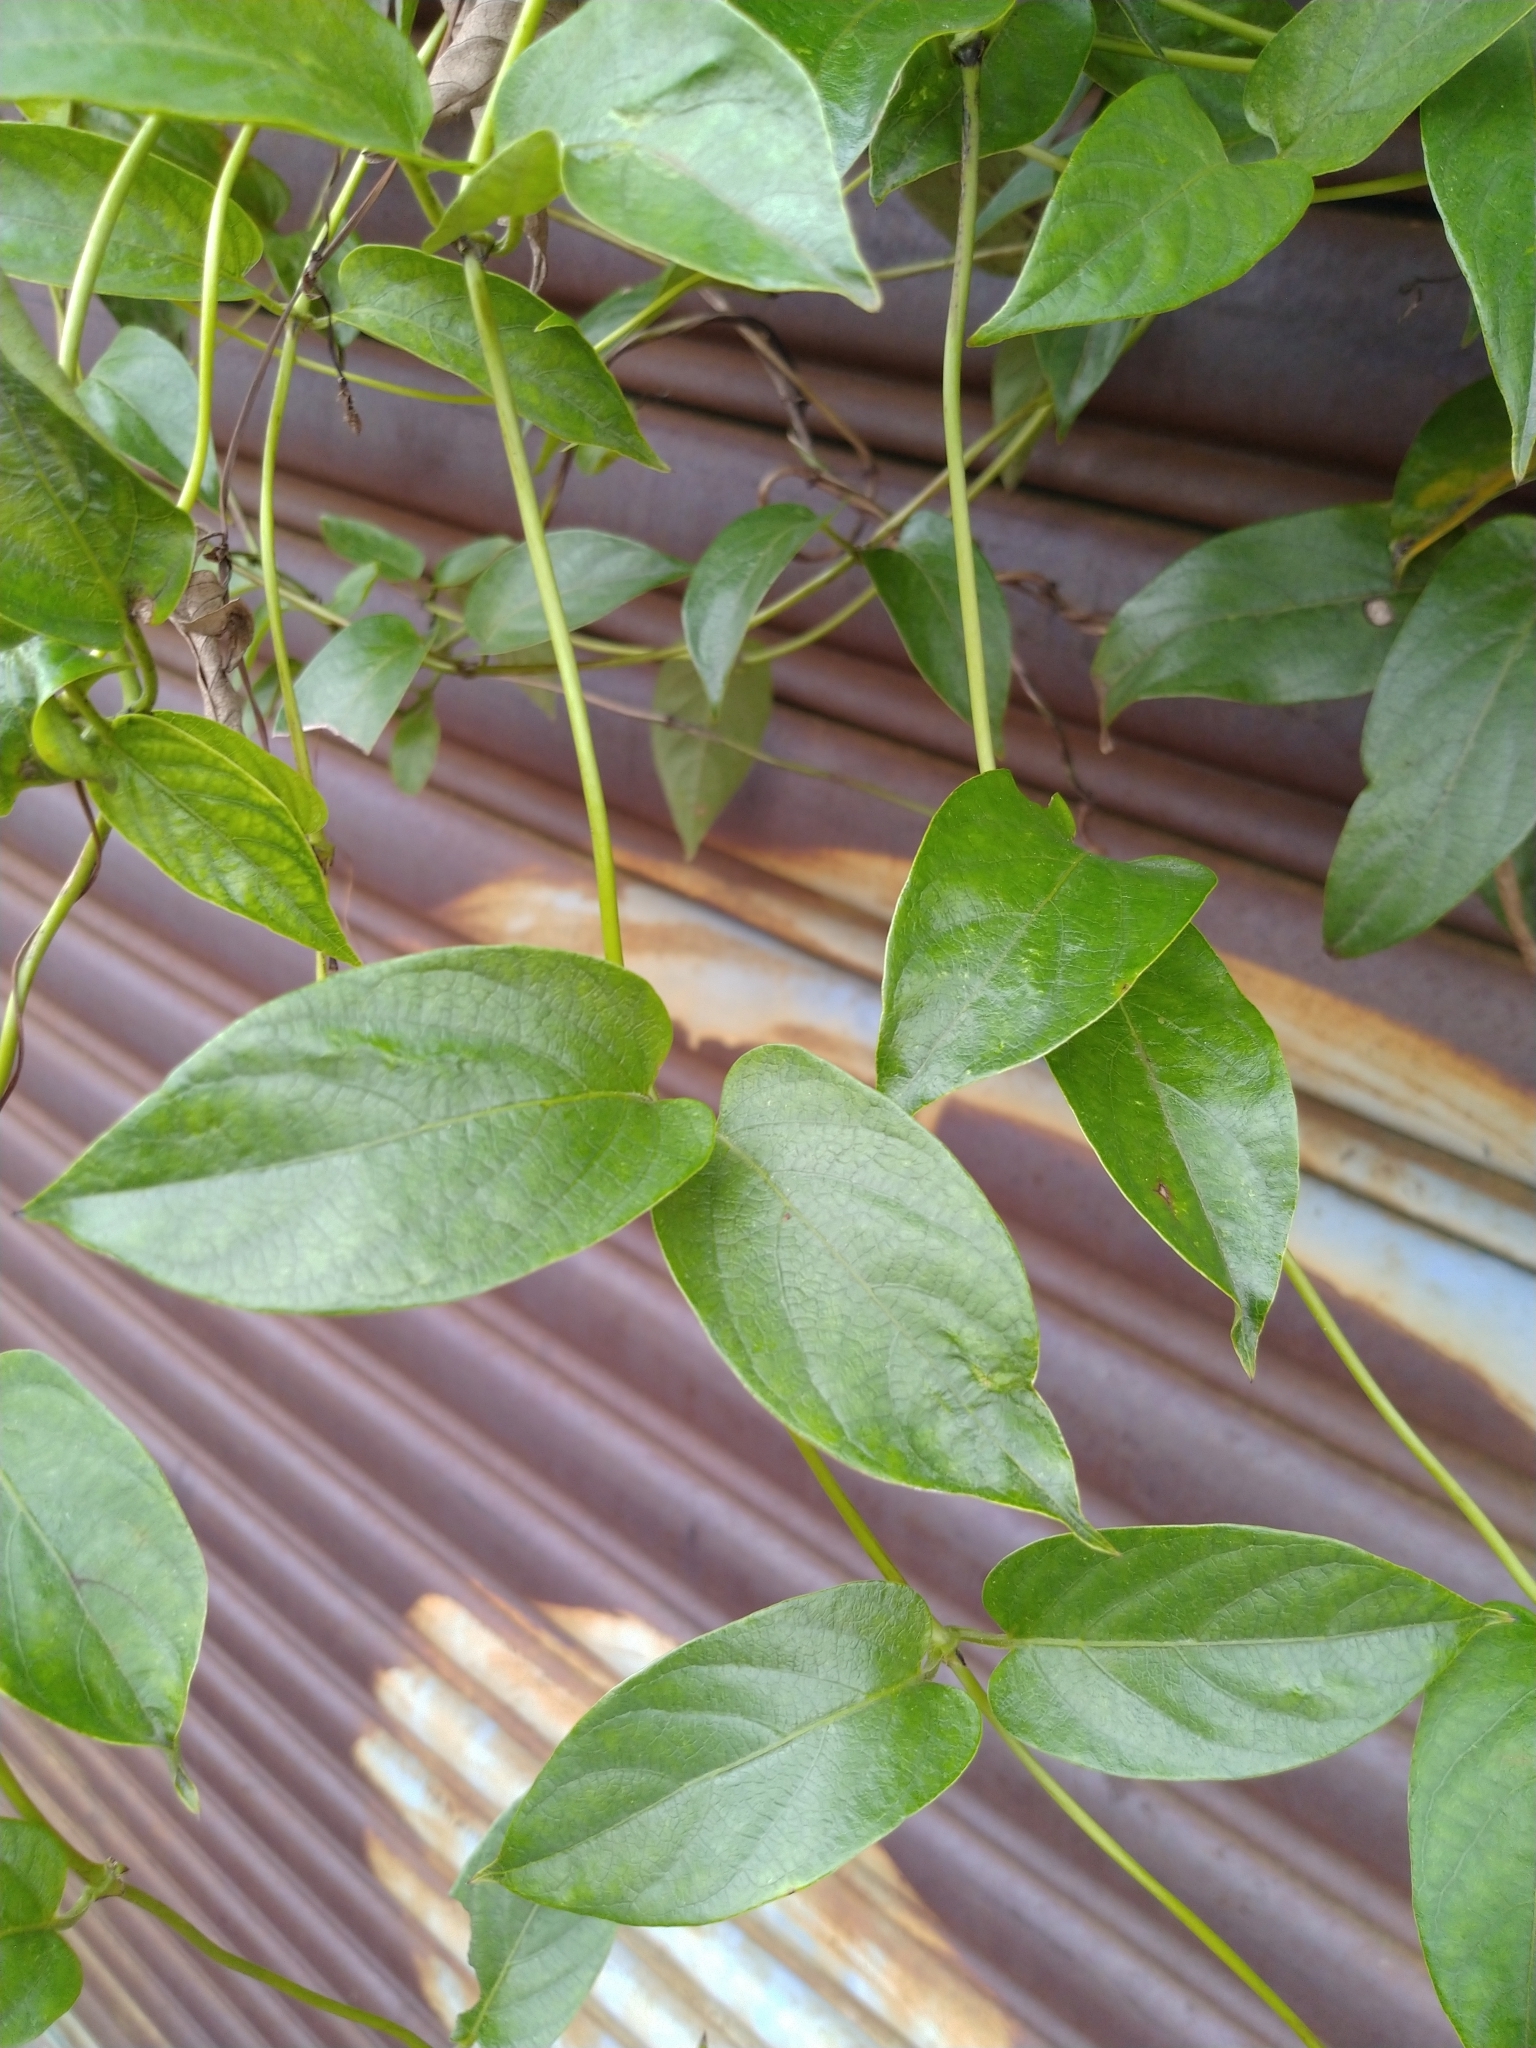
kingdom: Plantae
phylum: Tracheophyta
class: Magnoliopsida
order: Gentianales
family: Rubiaceae
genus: Paederia
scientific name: Paederia foetida
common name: Stinkvine
